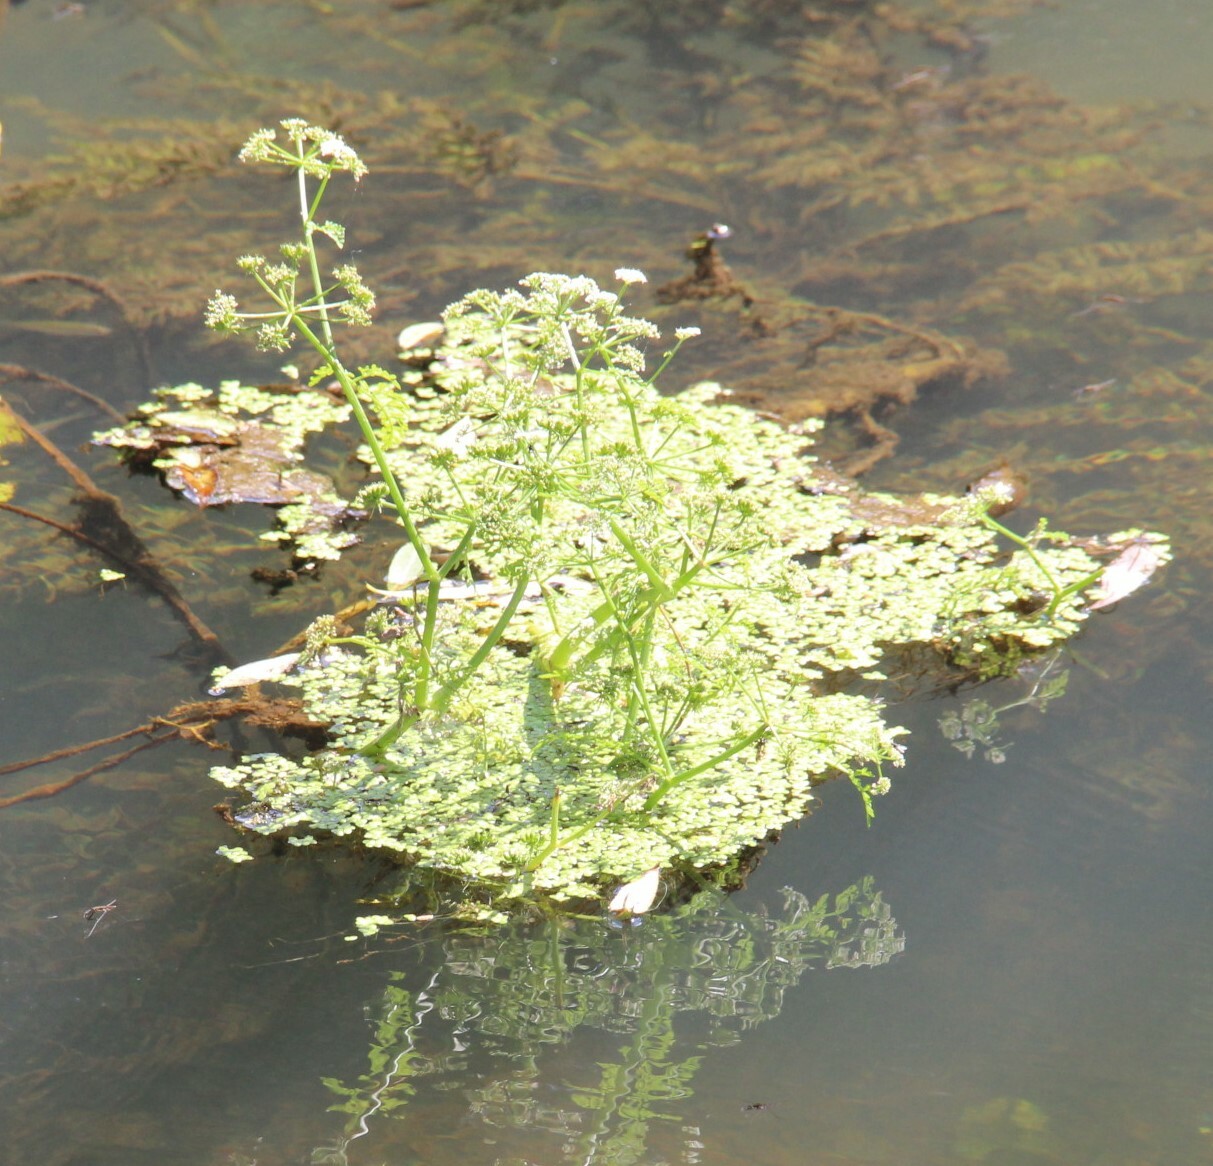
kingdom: Plantae
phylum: Tracheophyta
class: Magnoliopsida
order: Apiales
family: Apiaceae
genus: Oenanthe
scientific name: Oenanthe aquatica
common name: Fine-leaved water-dropwort
